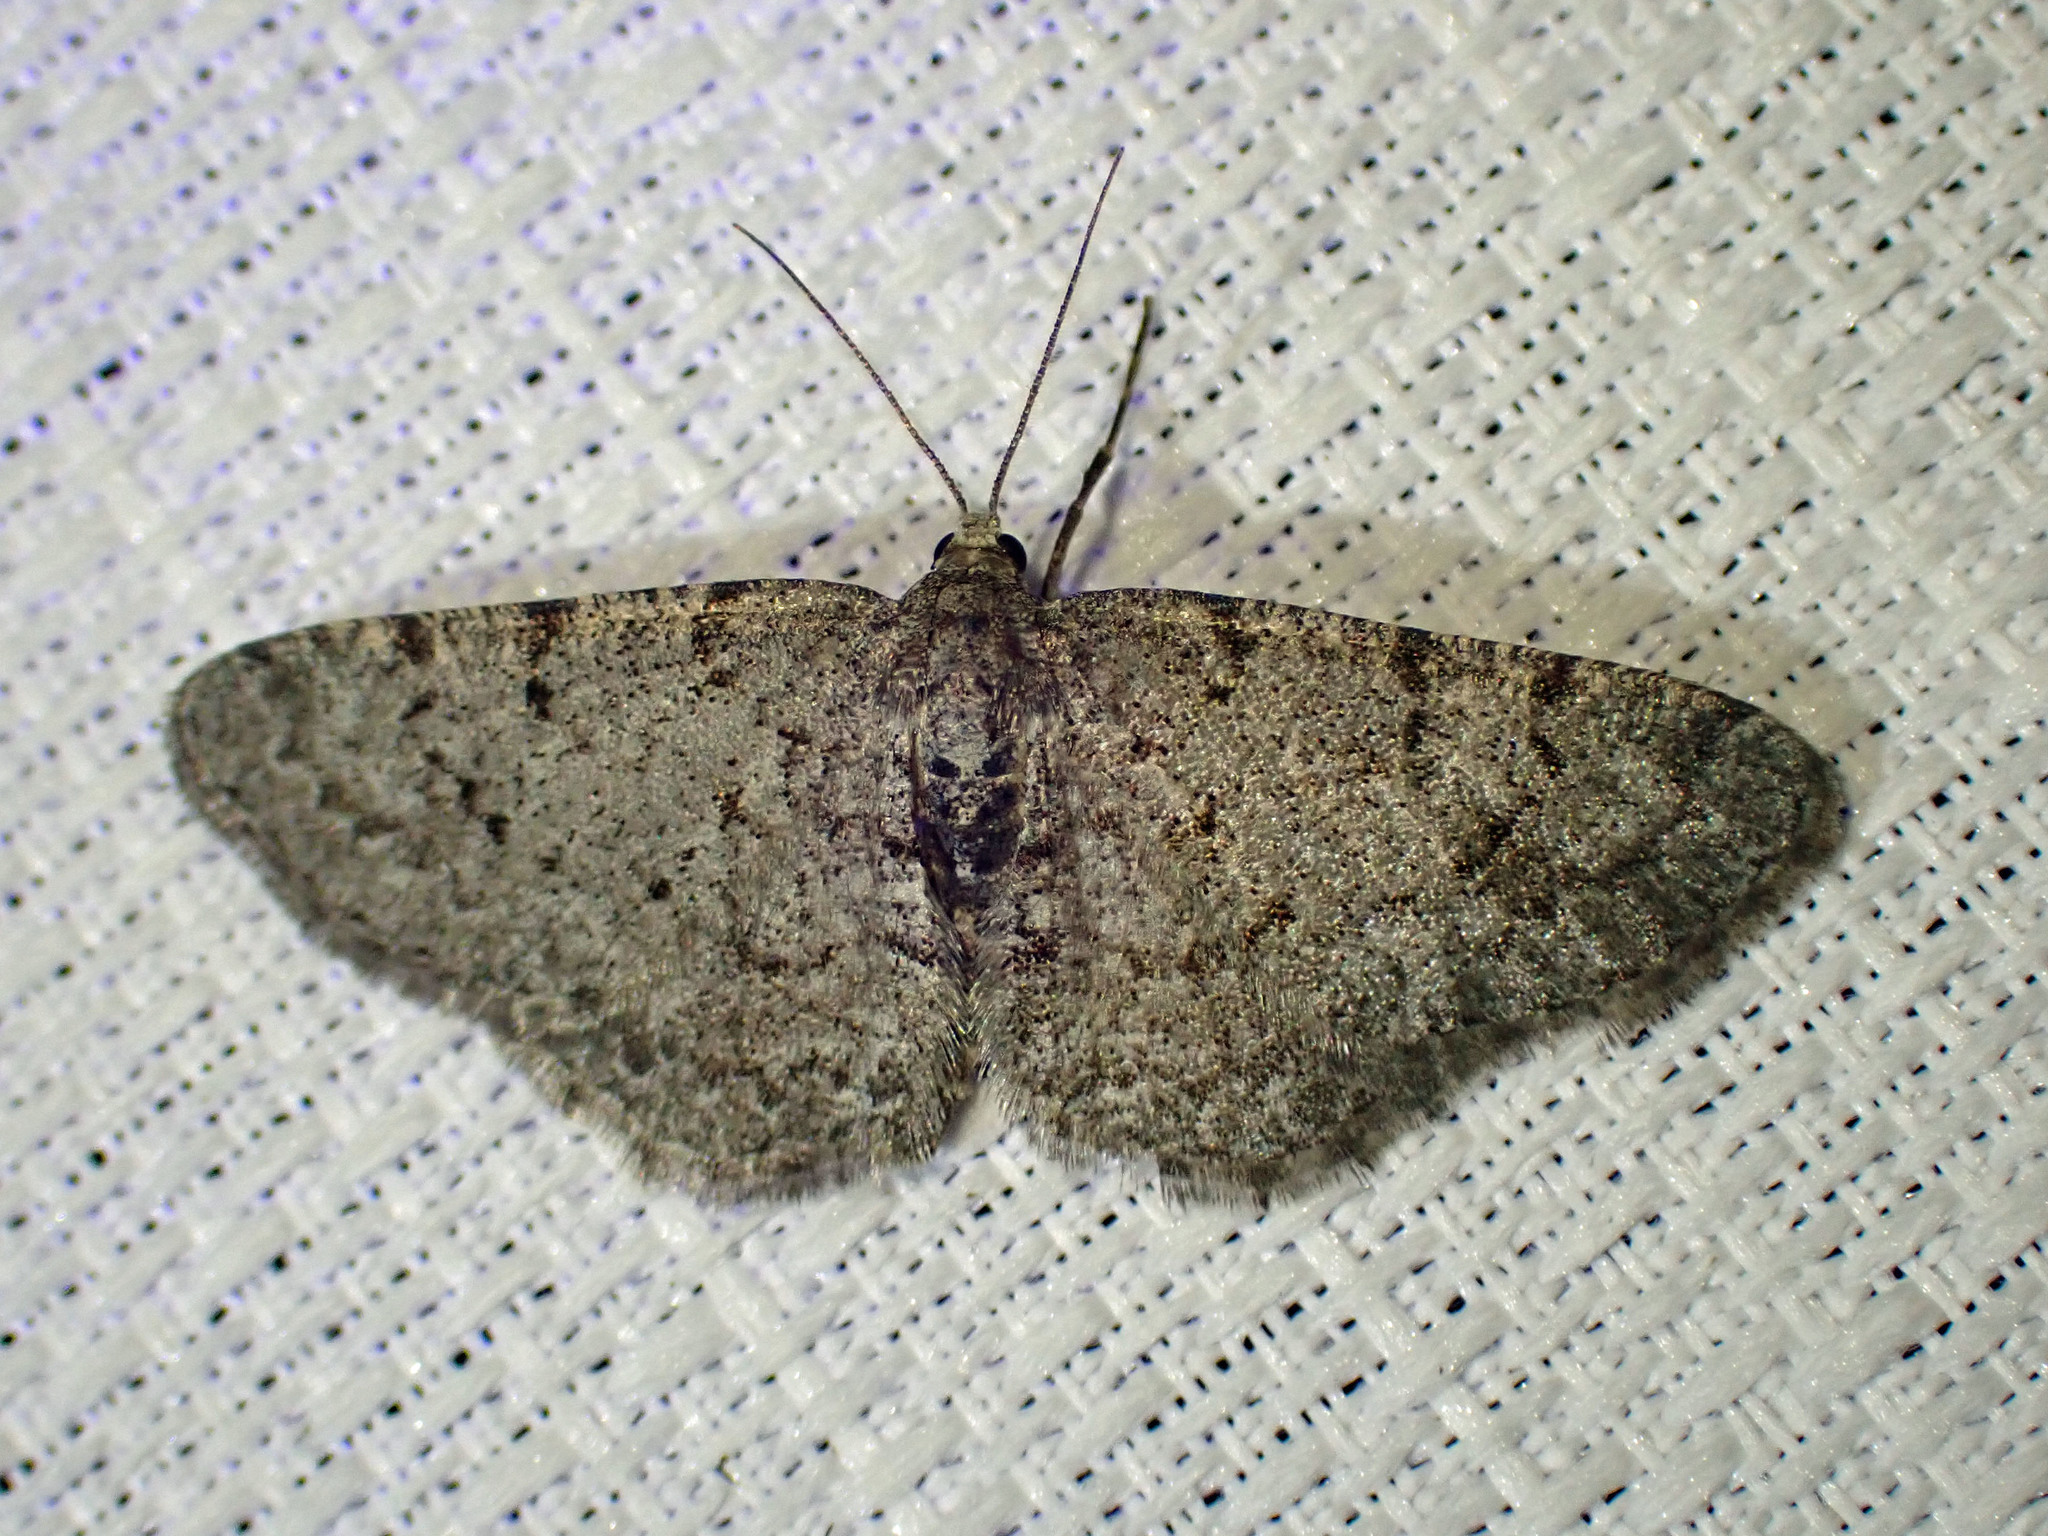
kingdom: Animalia
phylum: Arthropoda
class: Insecta
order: Lepidoptera
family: Geometridae
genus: Aethalura
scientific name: Aethalura intertexta
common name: Four-barred gray
